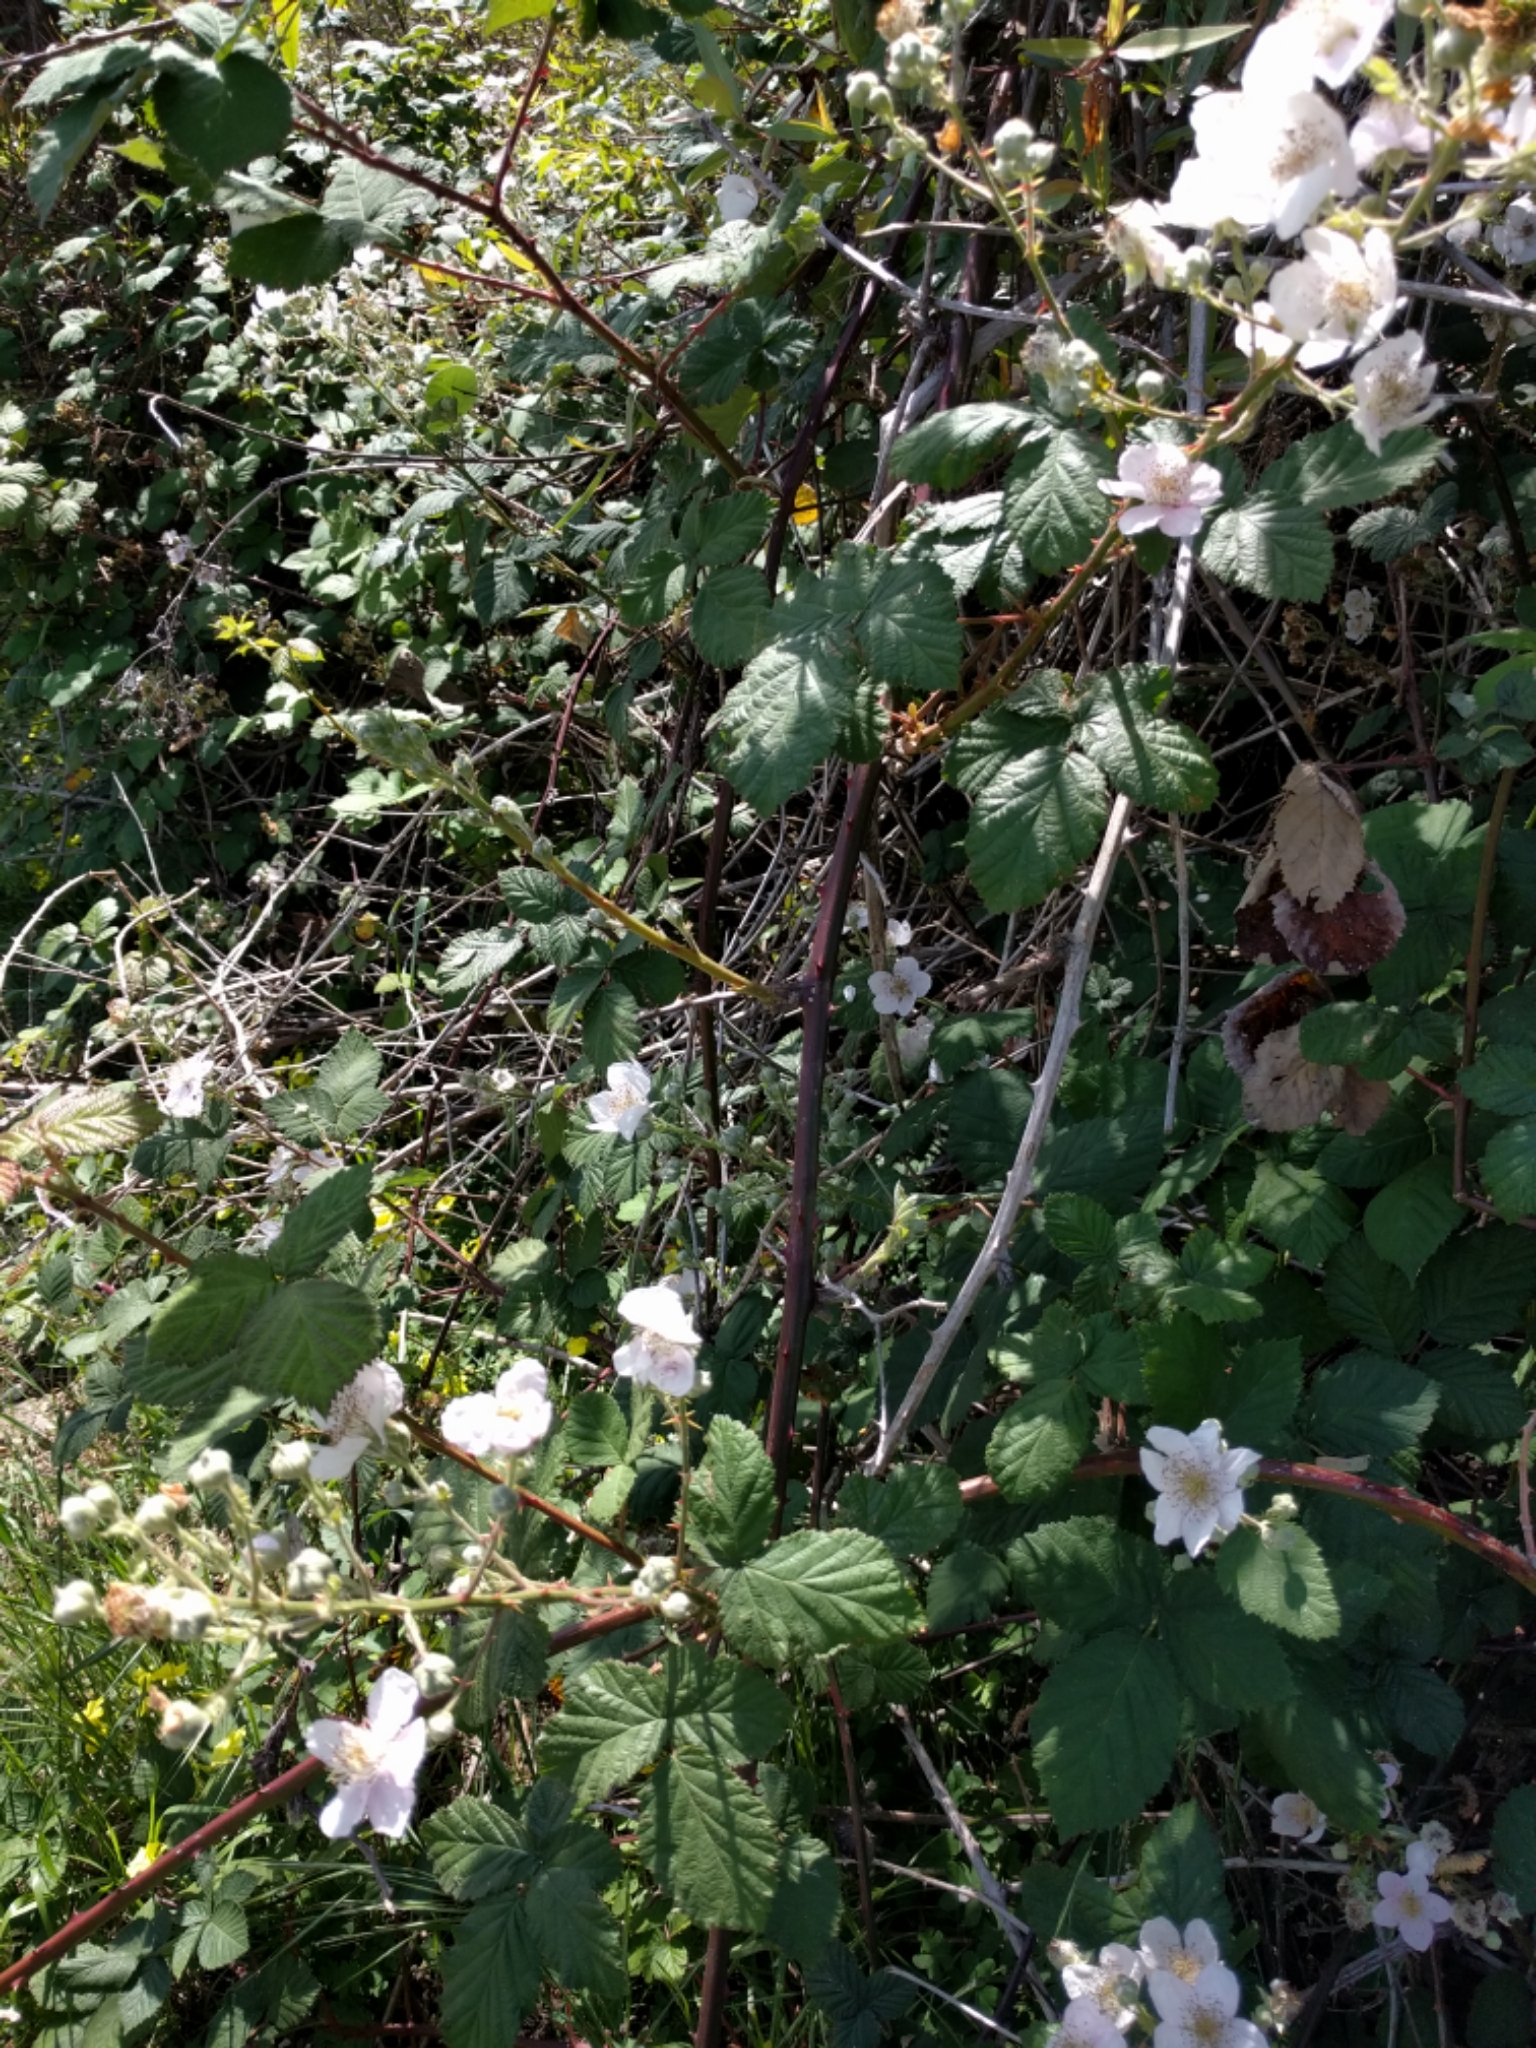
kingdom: Plantae
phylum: Tracheophyta
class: Magnoliopsida
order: Rosales
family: Rosaceae
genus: Rubus
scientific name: Rubus armeniacus
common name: Himalayan blackberry
